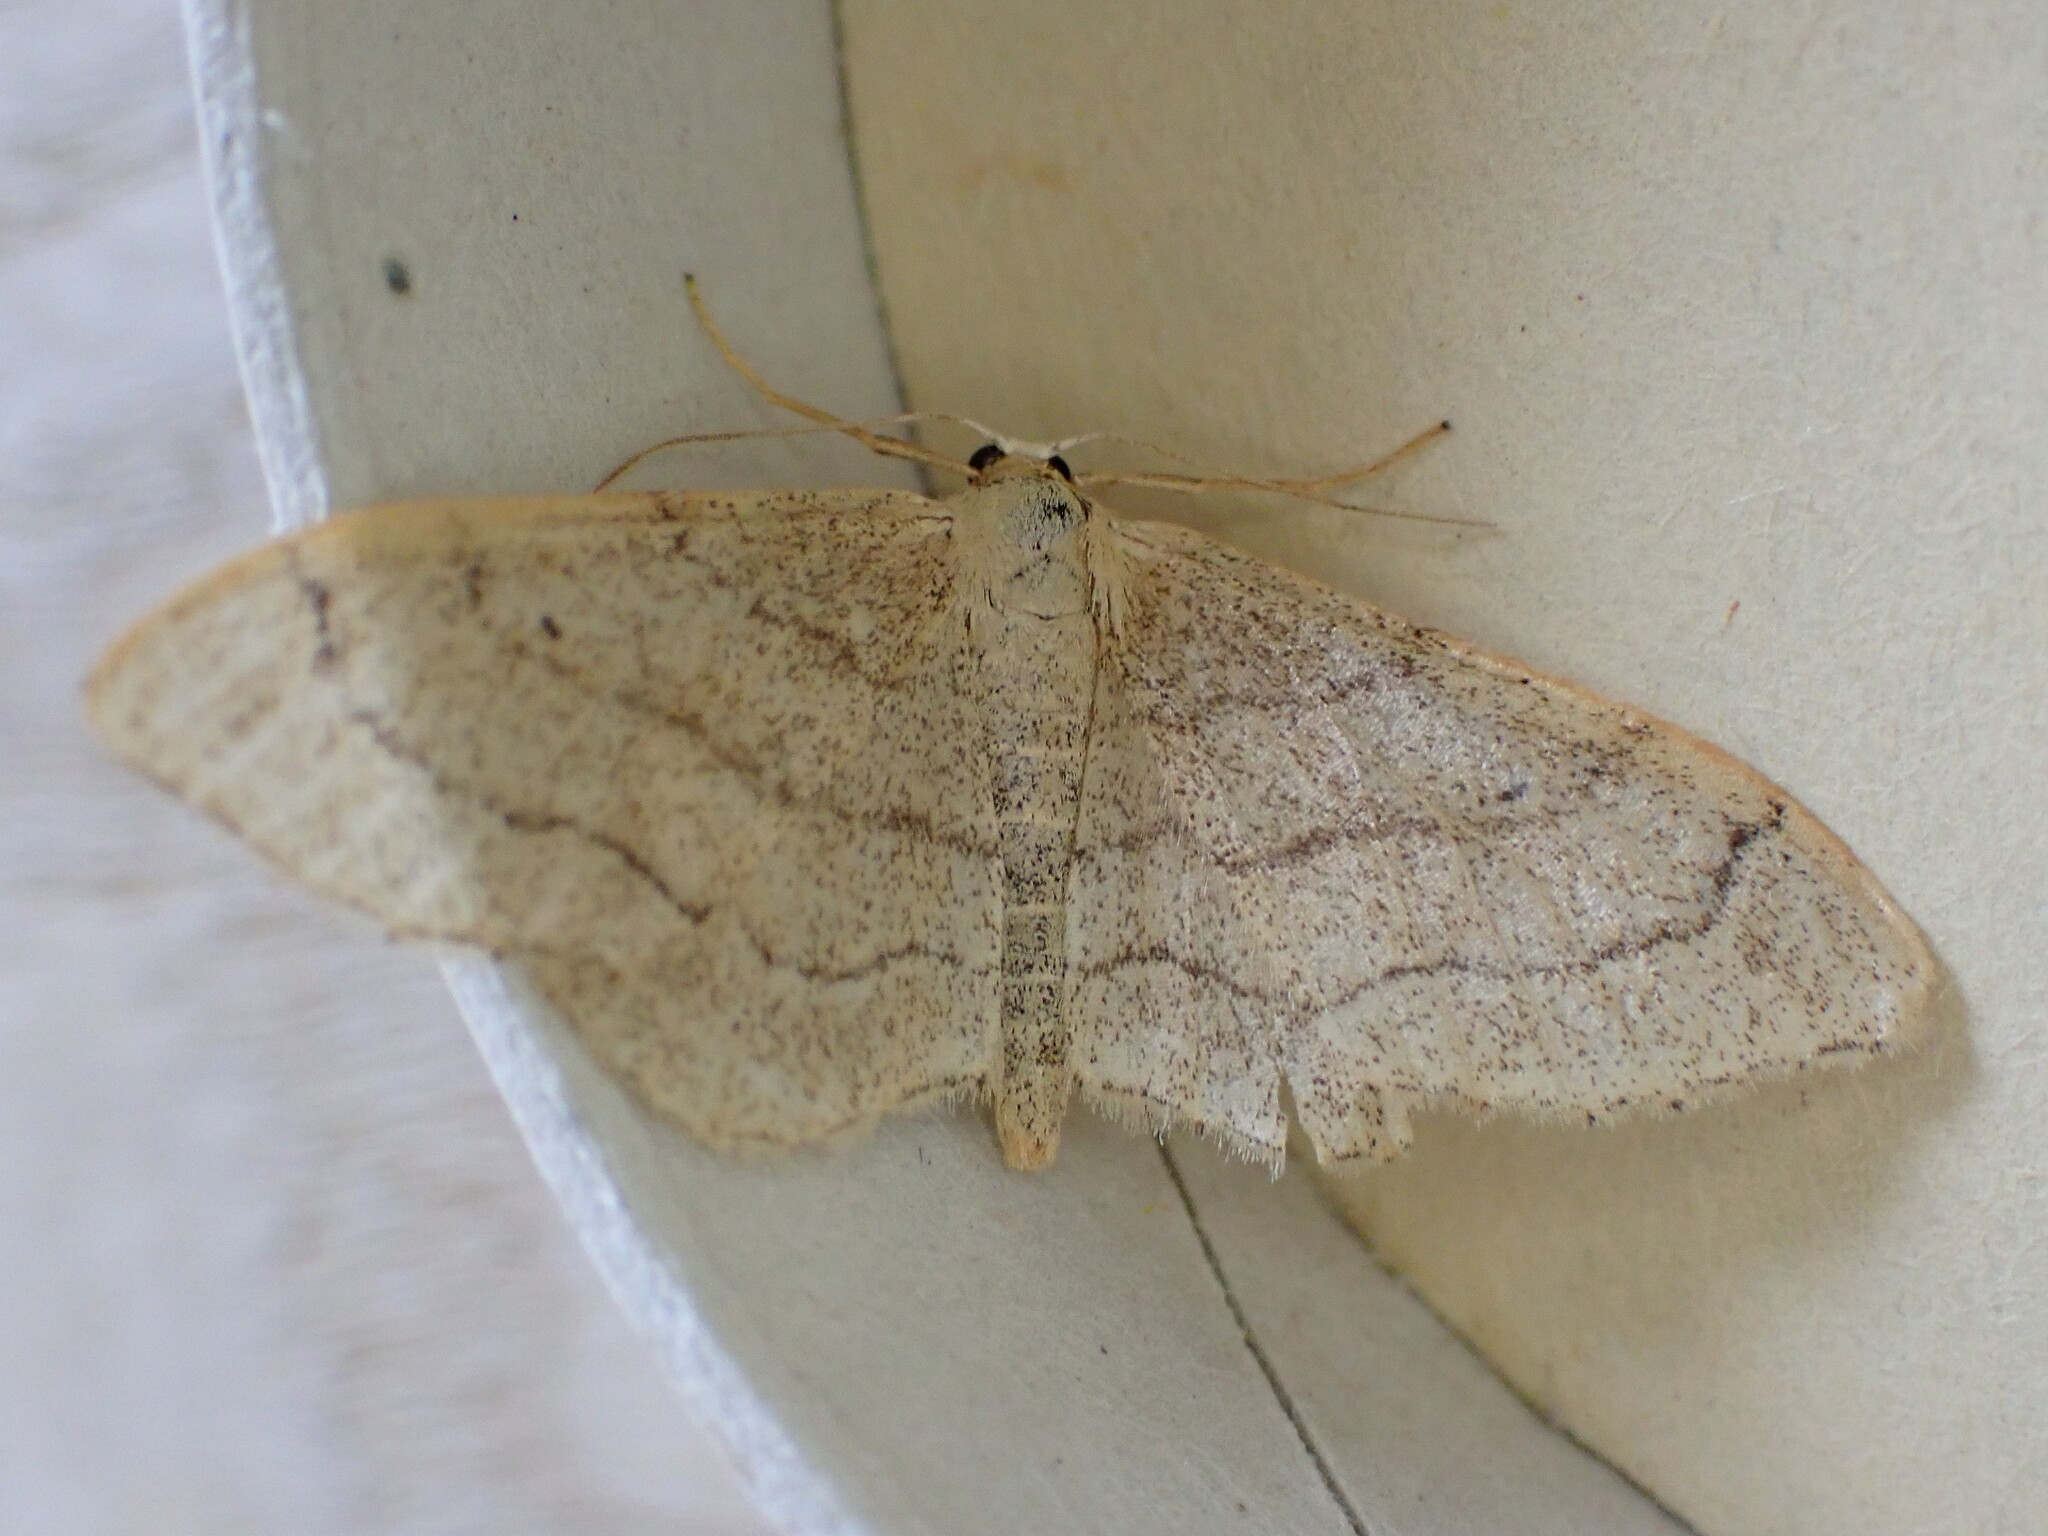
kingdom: Animalia
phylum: Arthropoda
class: Insecta
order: Lepidoptera
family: Geometridae
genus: Idaea
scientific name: Idaea aversata
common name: Riband wave
